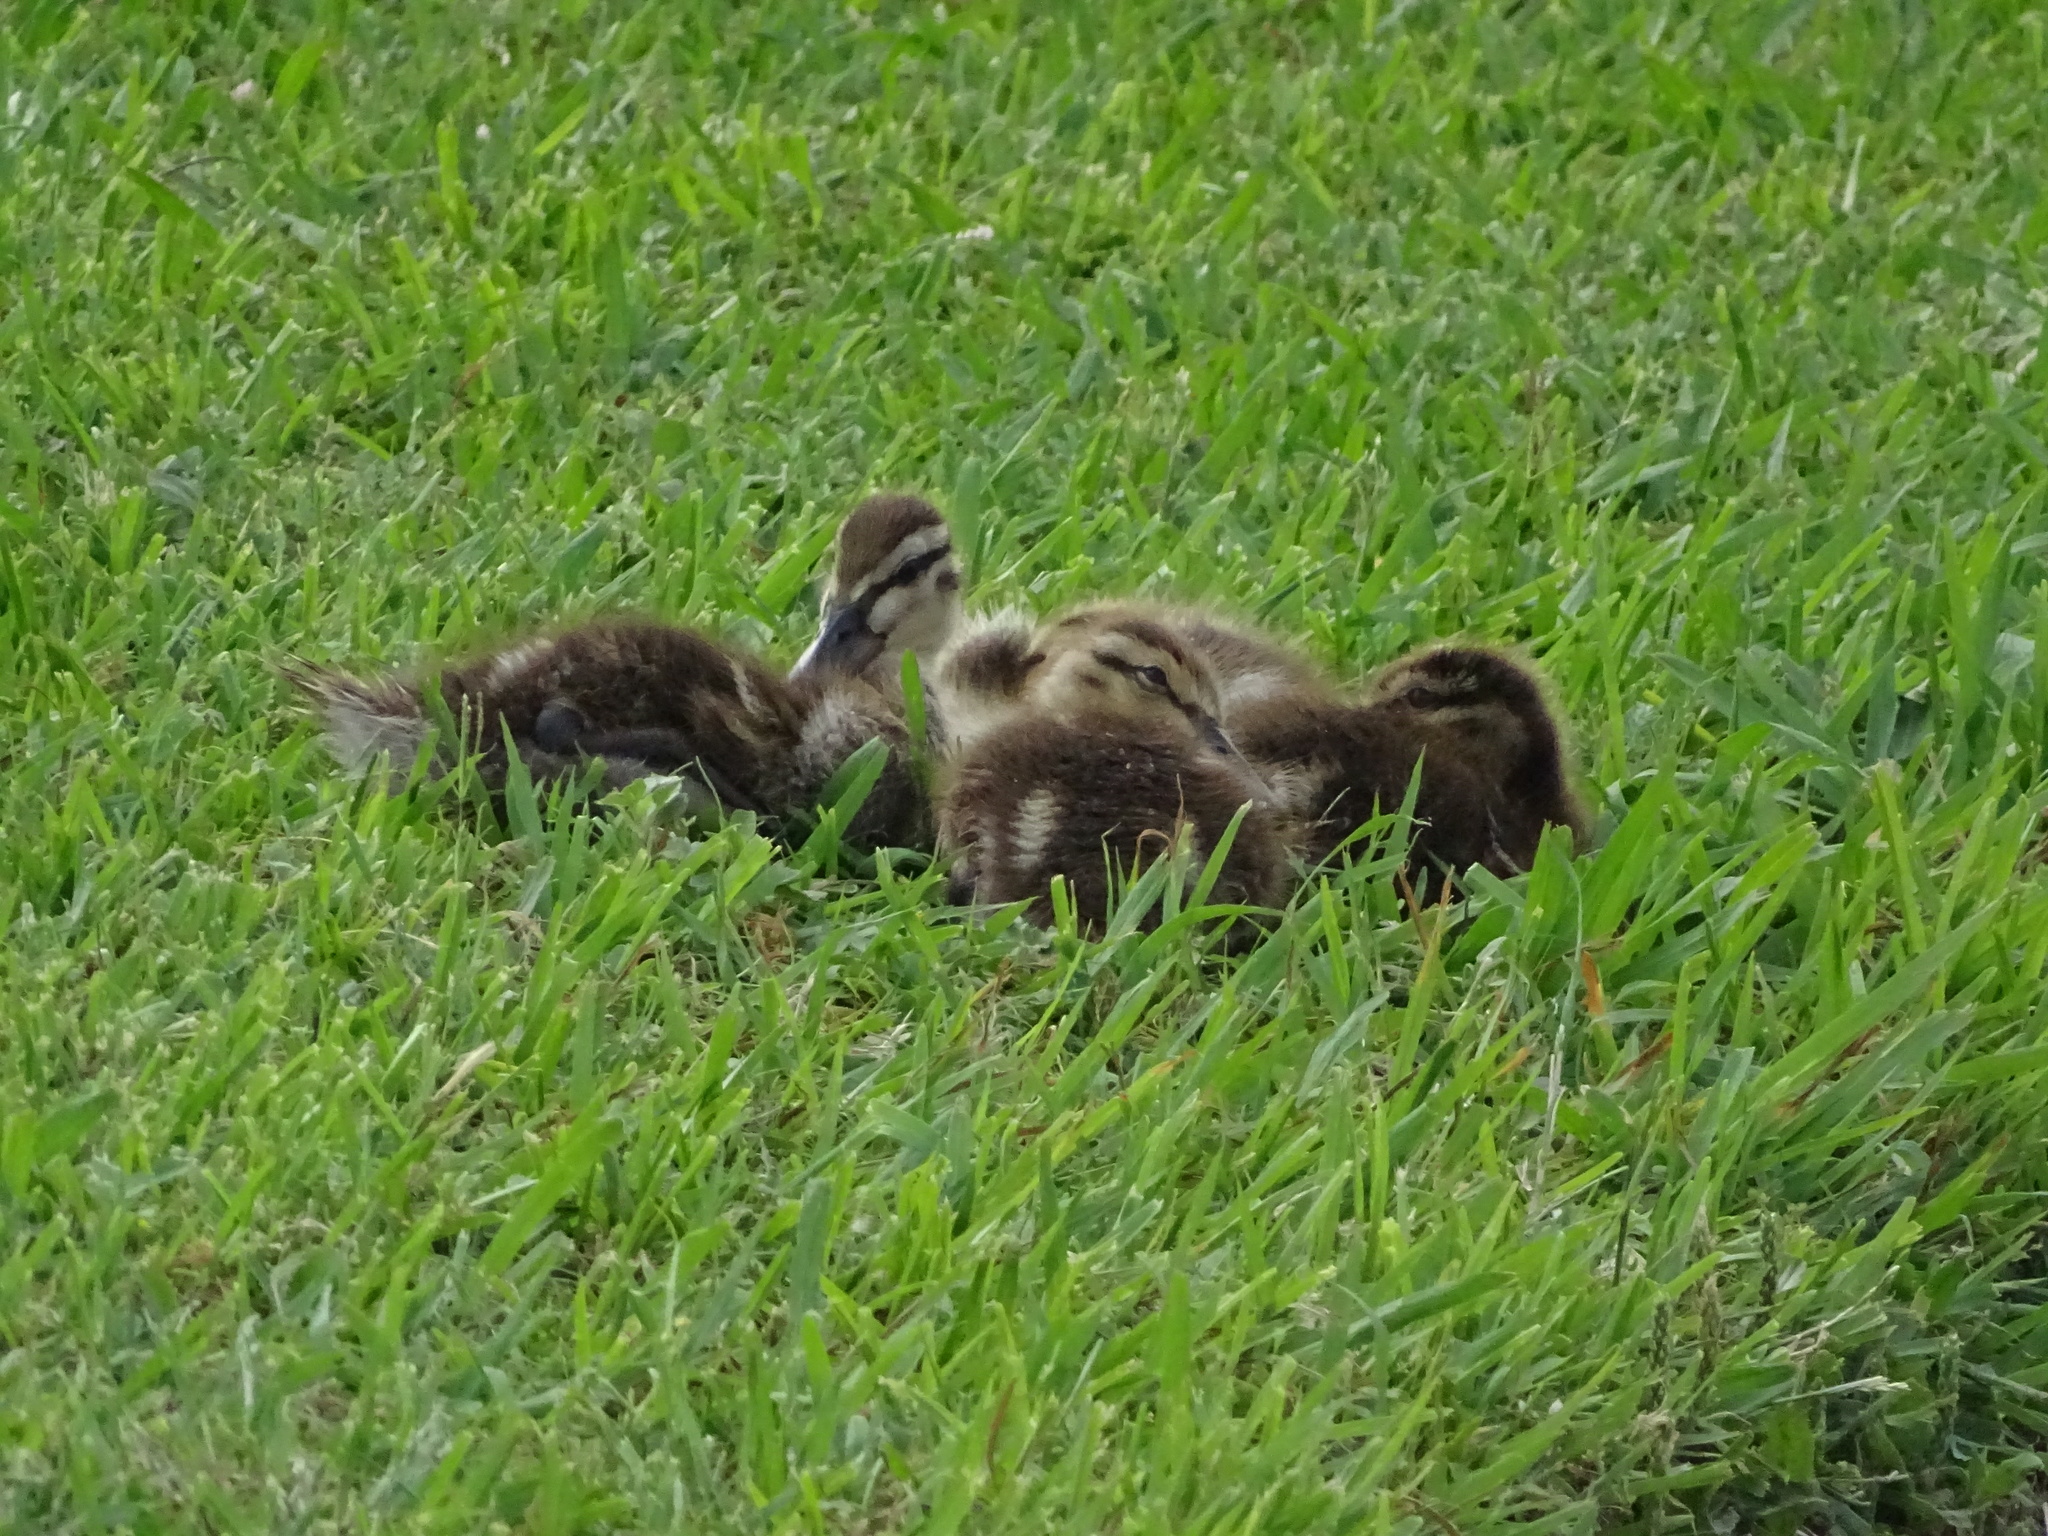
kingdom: Animalia
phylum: Chordata
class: Aves
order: Anseriformes
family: Anatidae
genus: Anas
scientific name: Anas platyrhynchos
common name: Mallard
